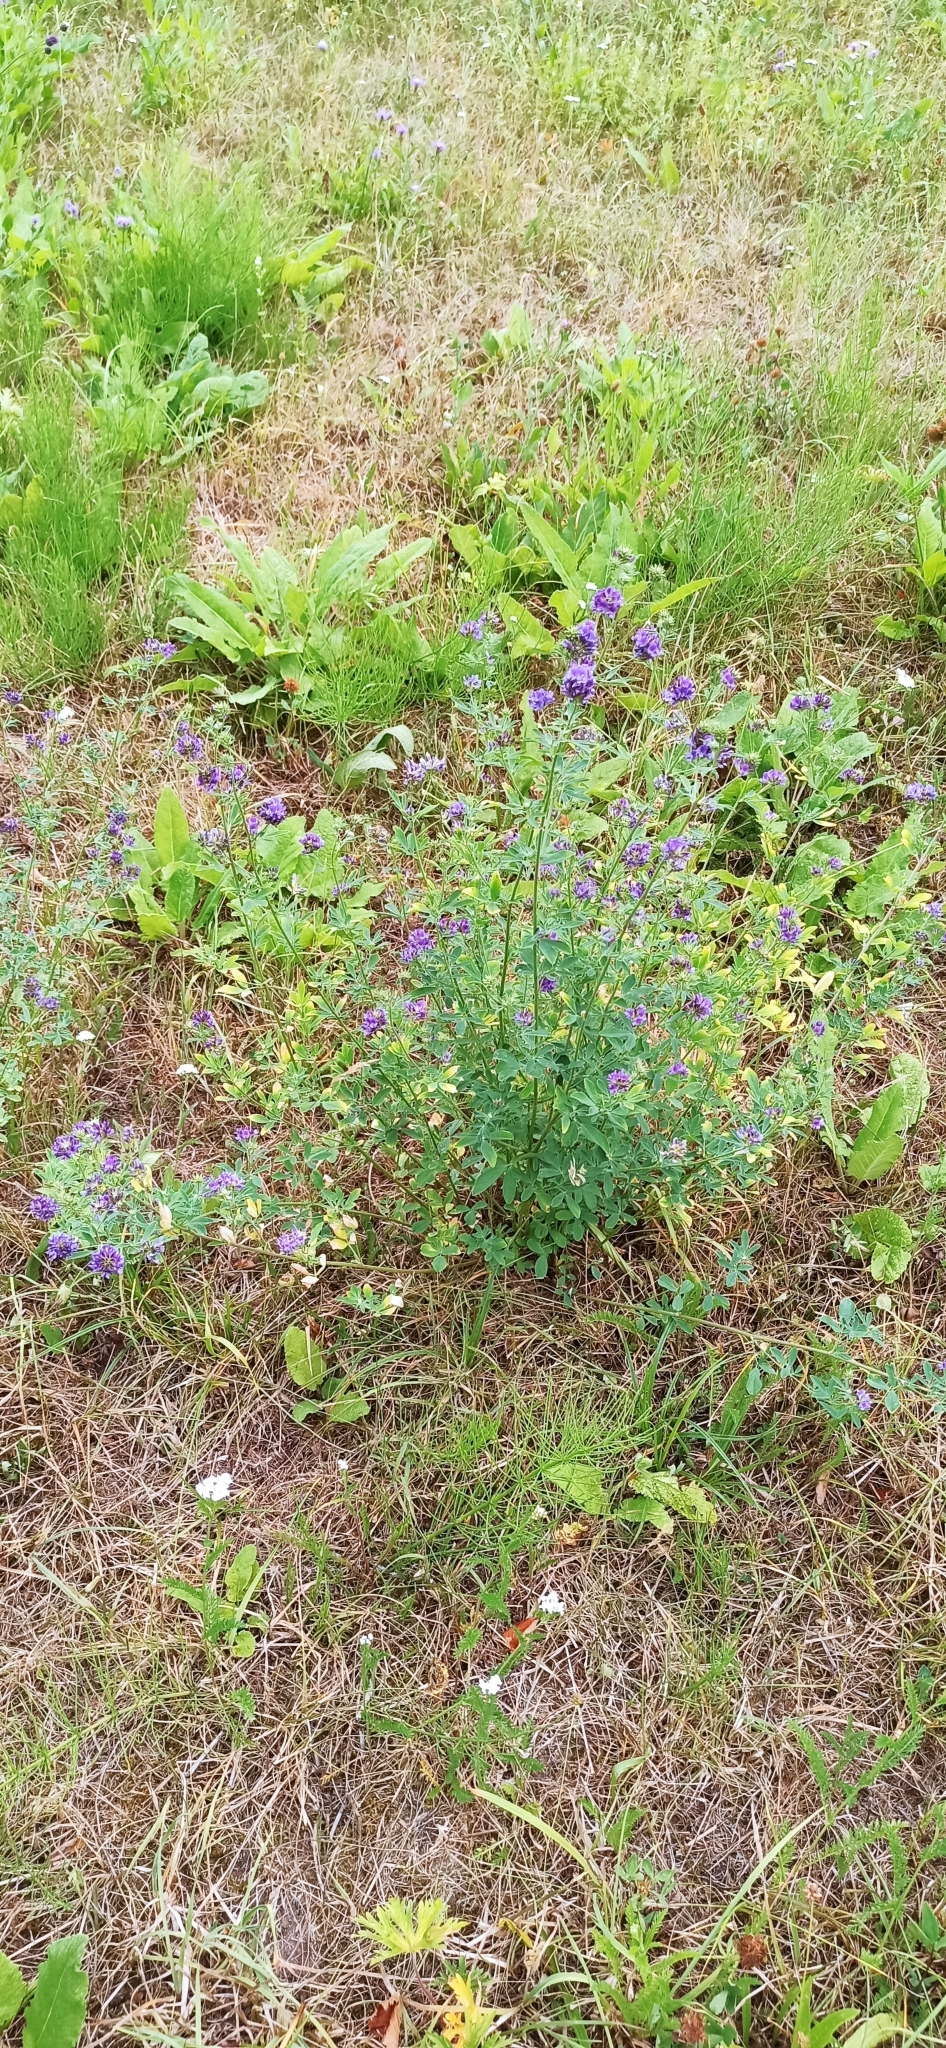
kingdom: Plantae
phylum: Tracheophyta
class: Magnoliopsida
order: Fabales
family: Fabaceae
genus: Medicago
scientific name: Medicago sativa
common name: Alfalfa
